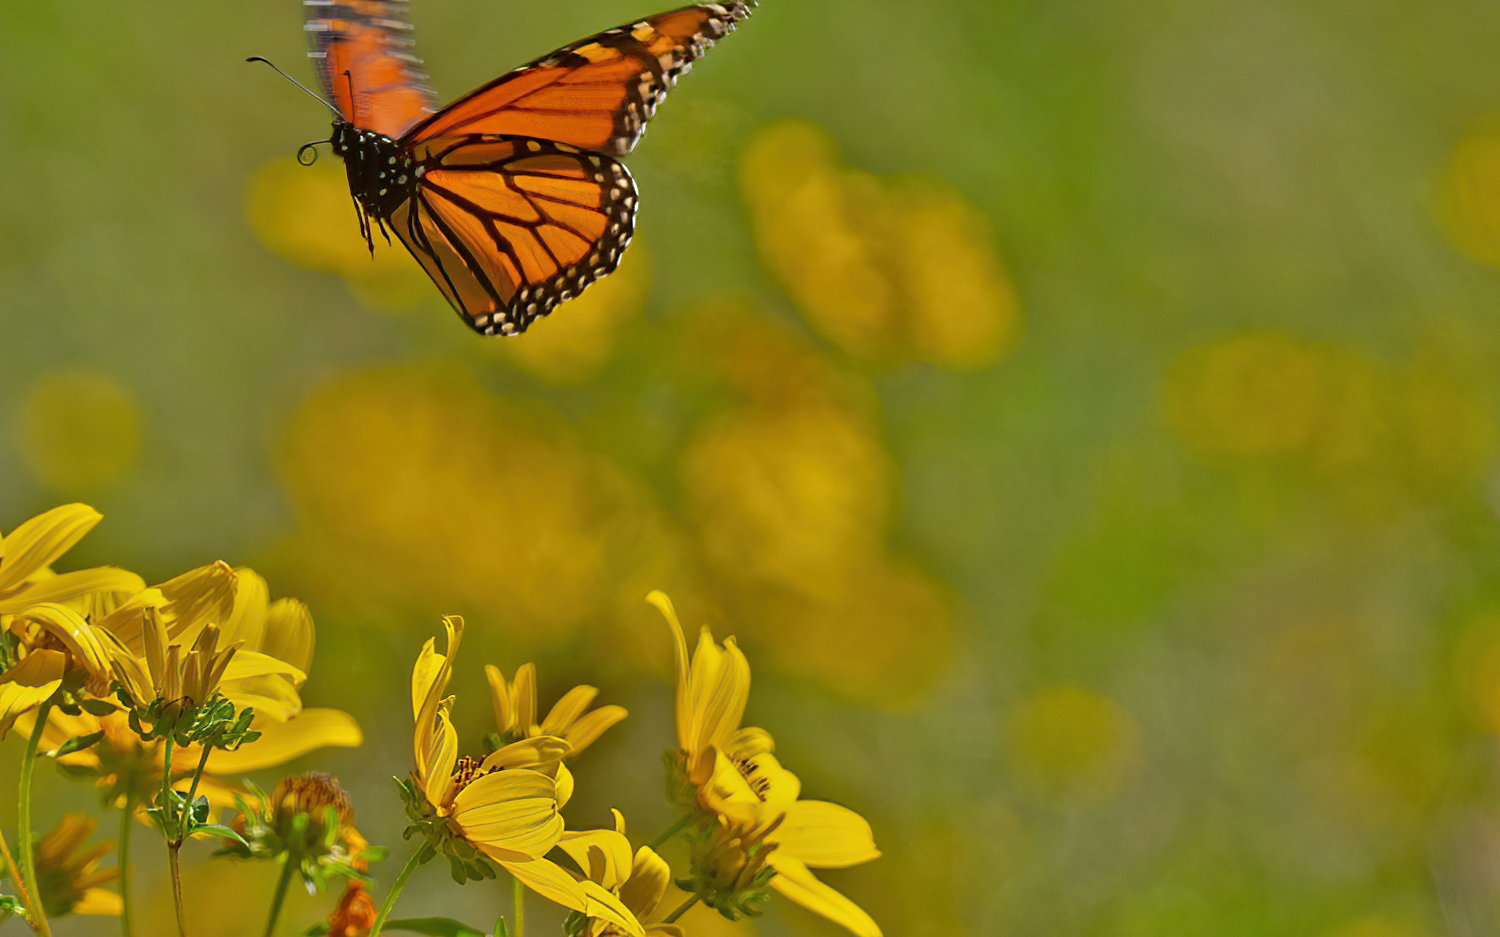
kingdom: Animalia
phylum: Arthropoda
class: Insecta
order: Lepidoptera
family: Nymphalidae
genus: Danaus
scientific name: Danaus plexippus
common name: Monarch
